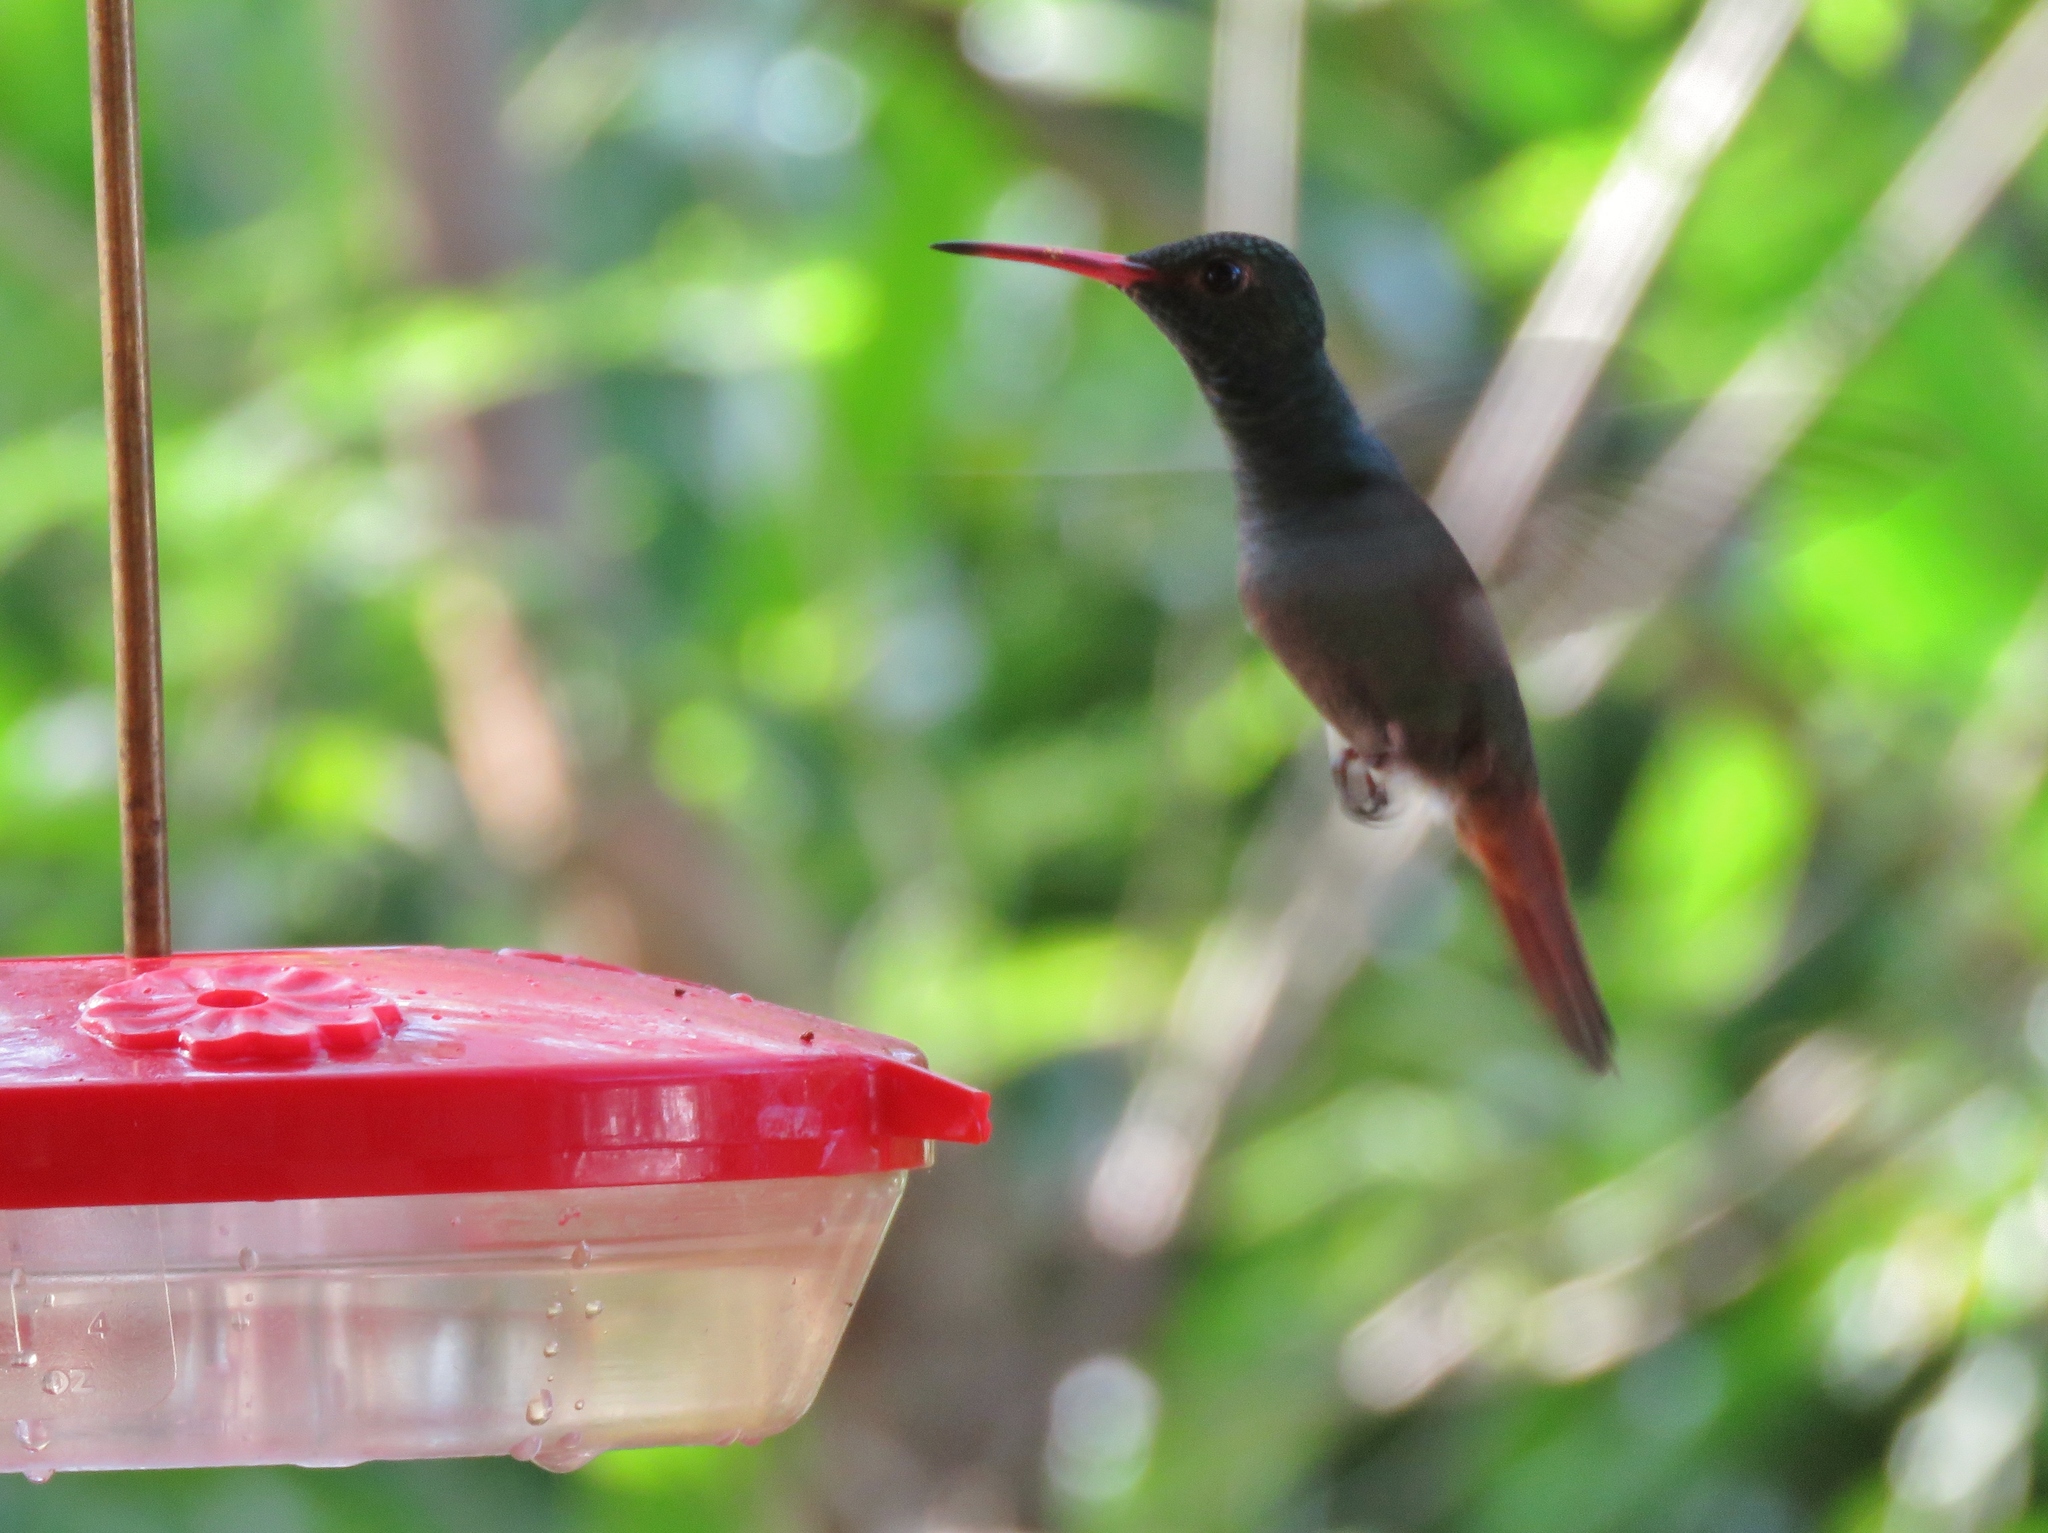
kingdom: Animalia
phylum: Chordata
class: Aves
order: Apodiformes
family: Trochilidae
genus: Amazilia
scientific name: Amazilia tzacatl
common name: Rufous-tailed hummingbird
